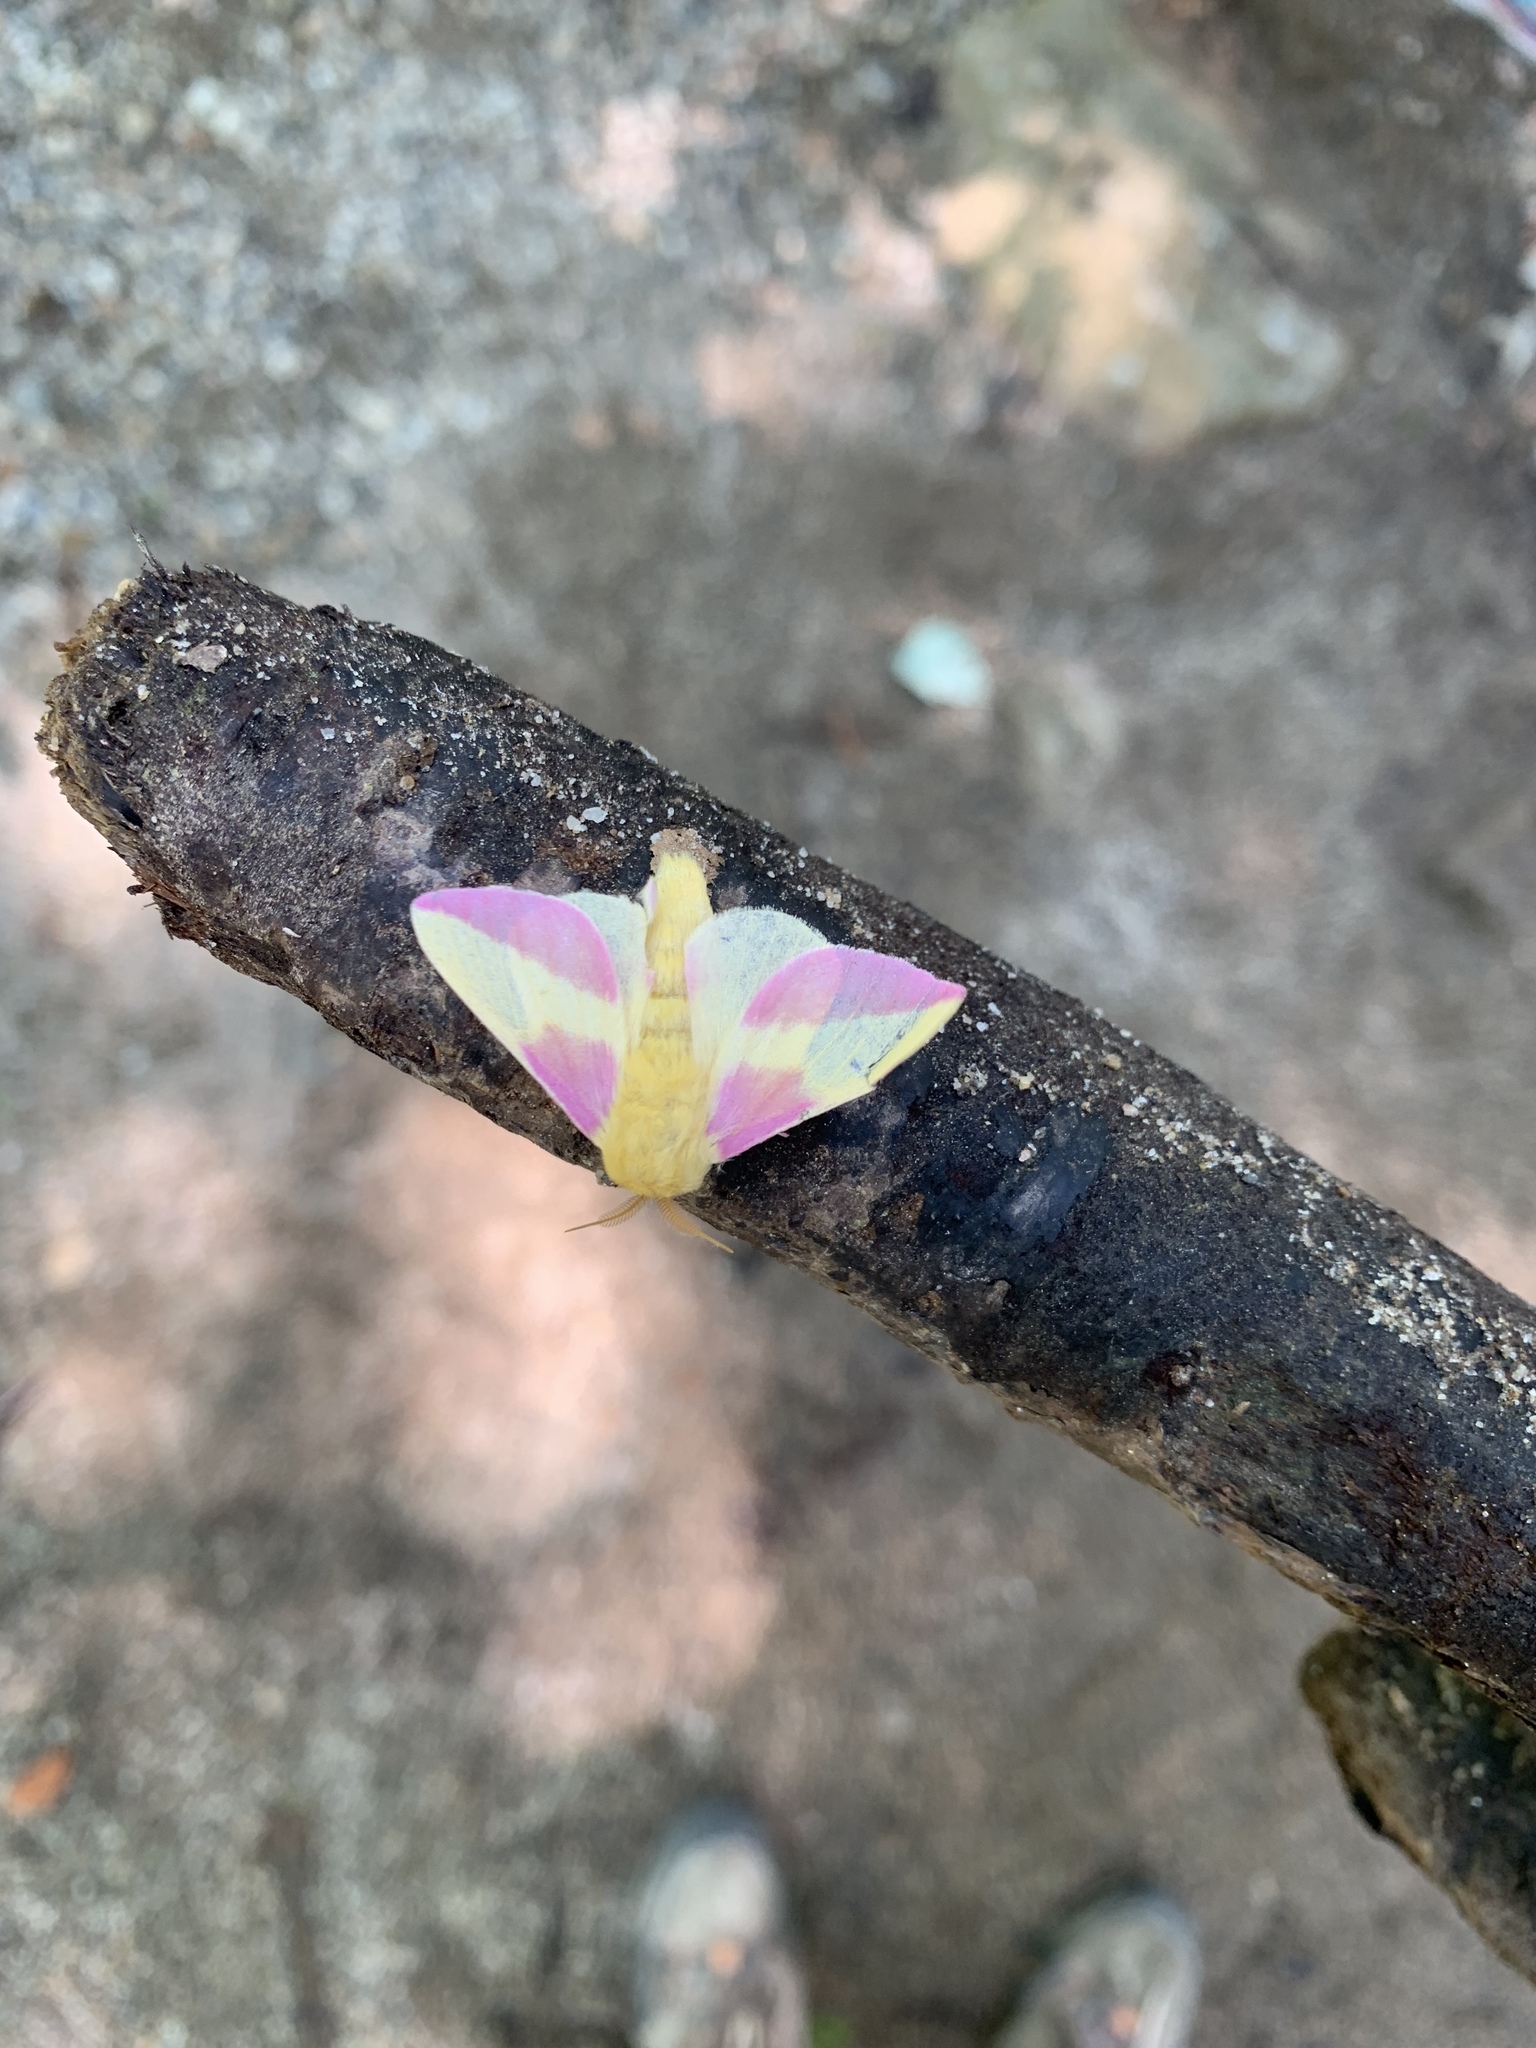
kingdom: Animalia
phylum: Arthropoda
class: Insecta
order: Lepidoptera
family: Saturniidae
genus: Dryocampa
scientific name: Dryocampa rubicunda
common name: Rosy maple moth
